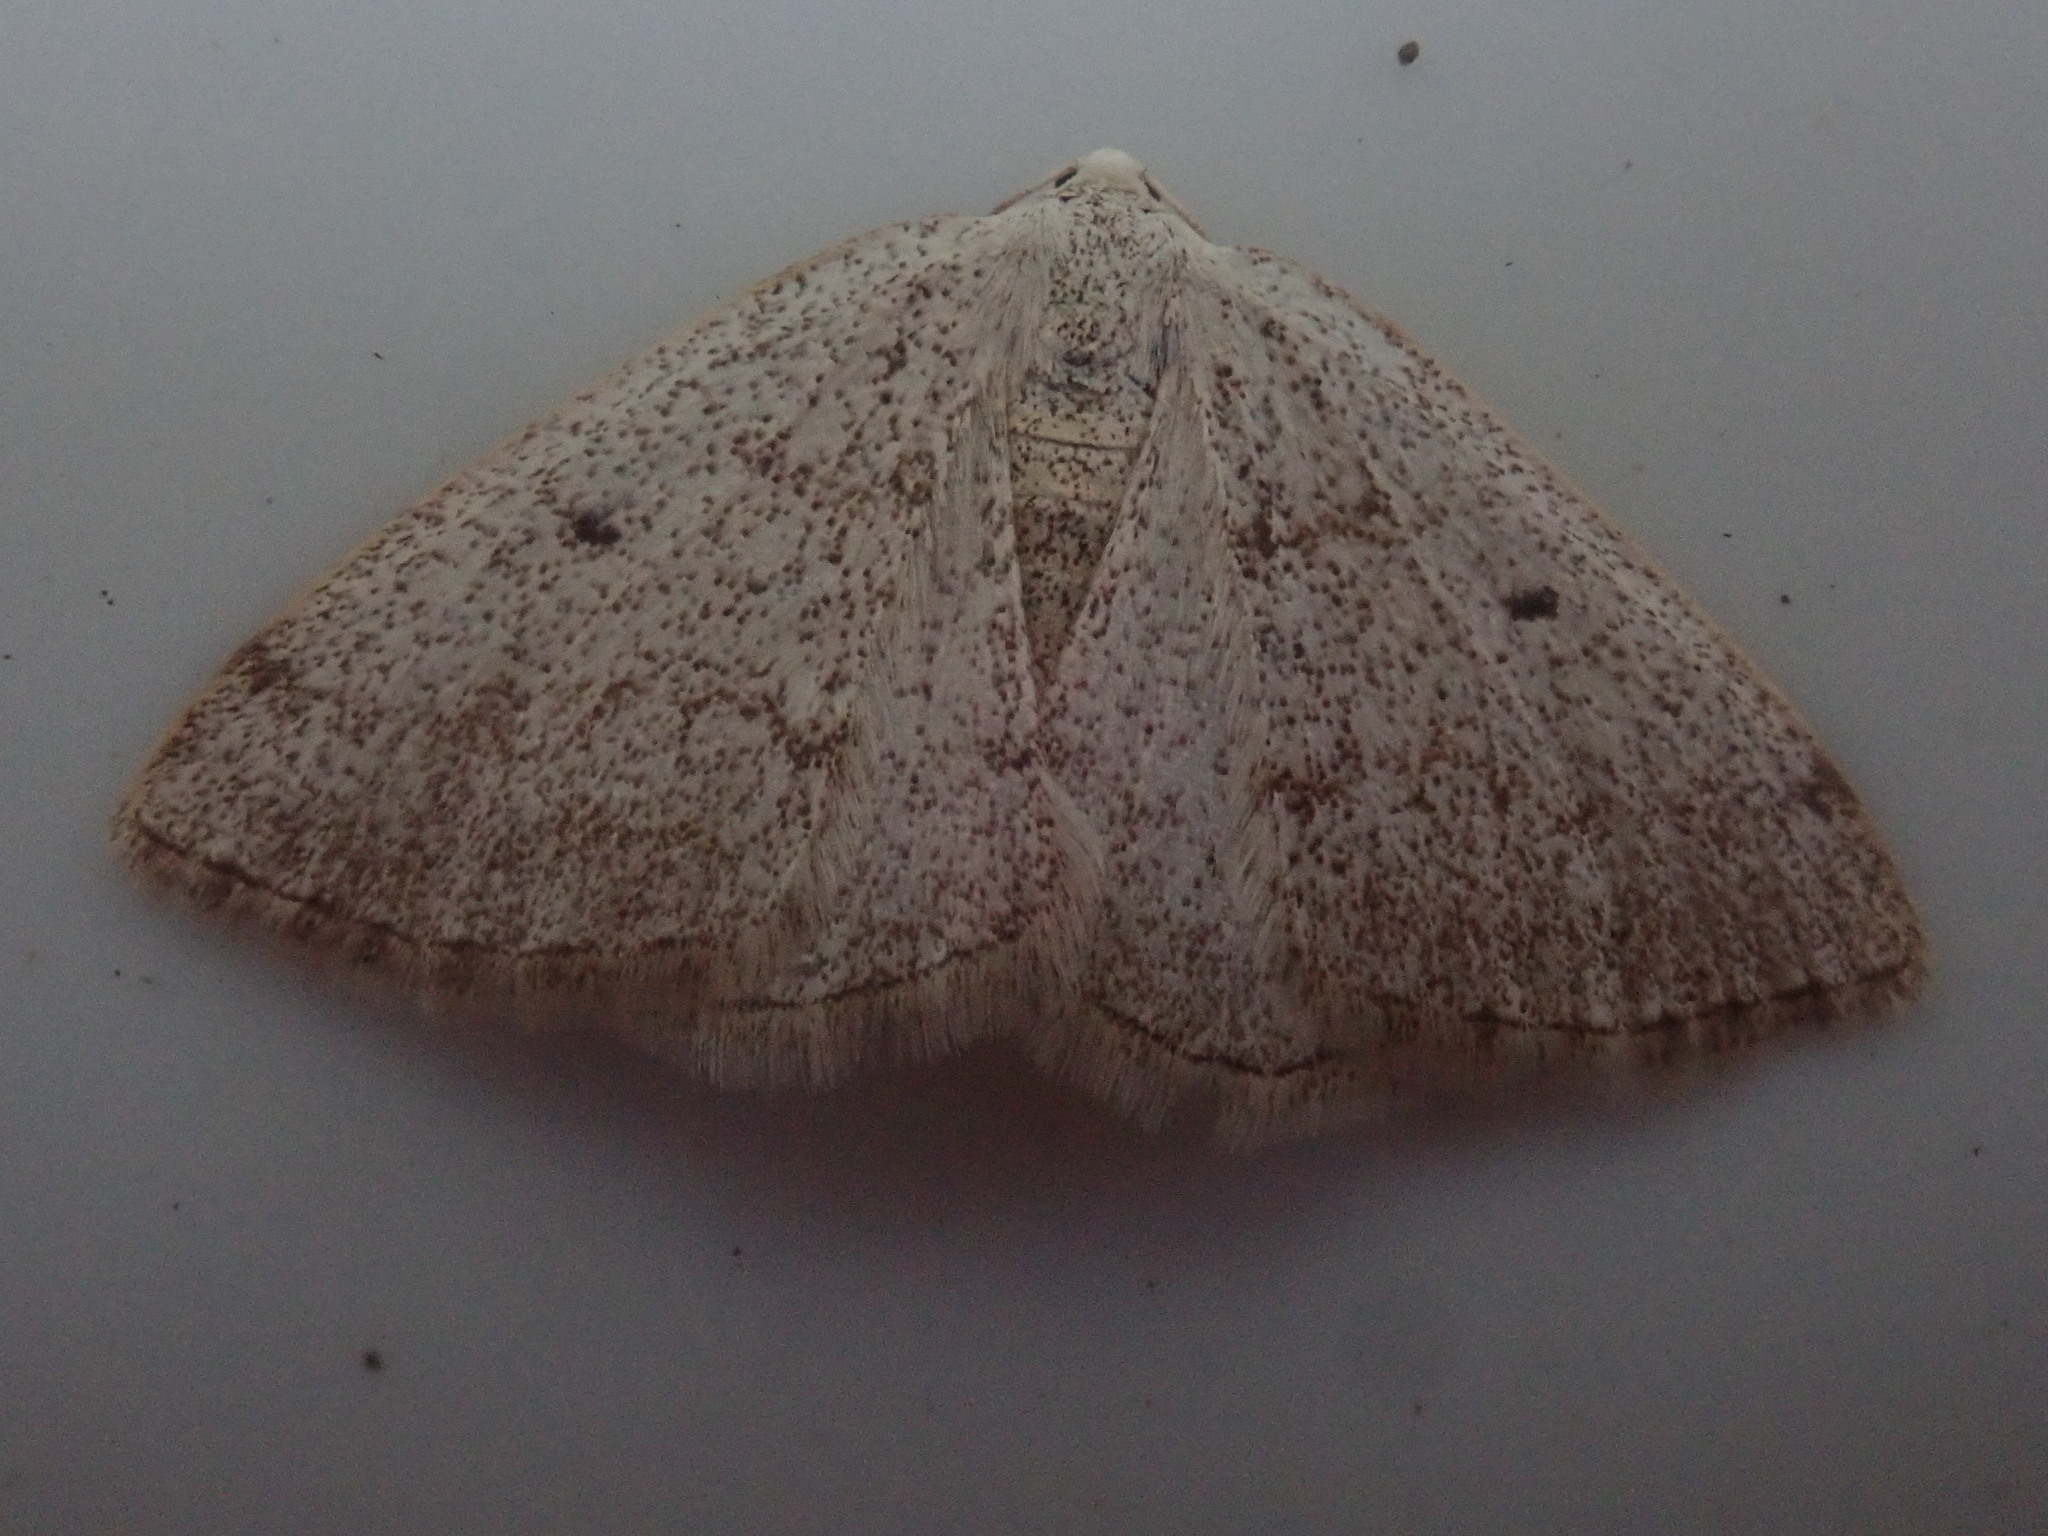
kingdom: Animalia
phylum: Arthropoda
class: Insecta
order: Lepidoptera
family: Geometridae
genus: Lomographa
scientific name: Lomographa glomeraria
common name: Gray spring moth
